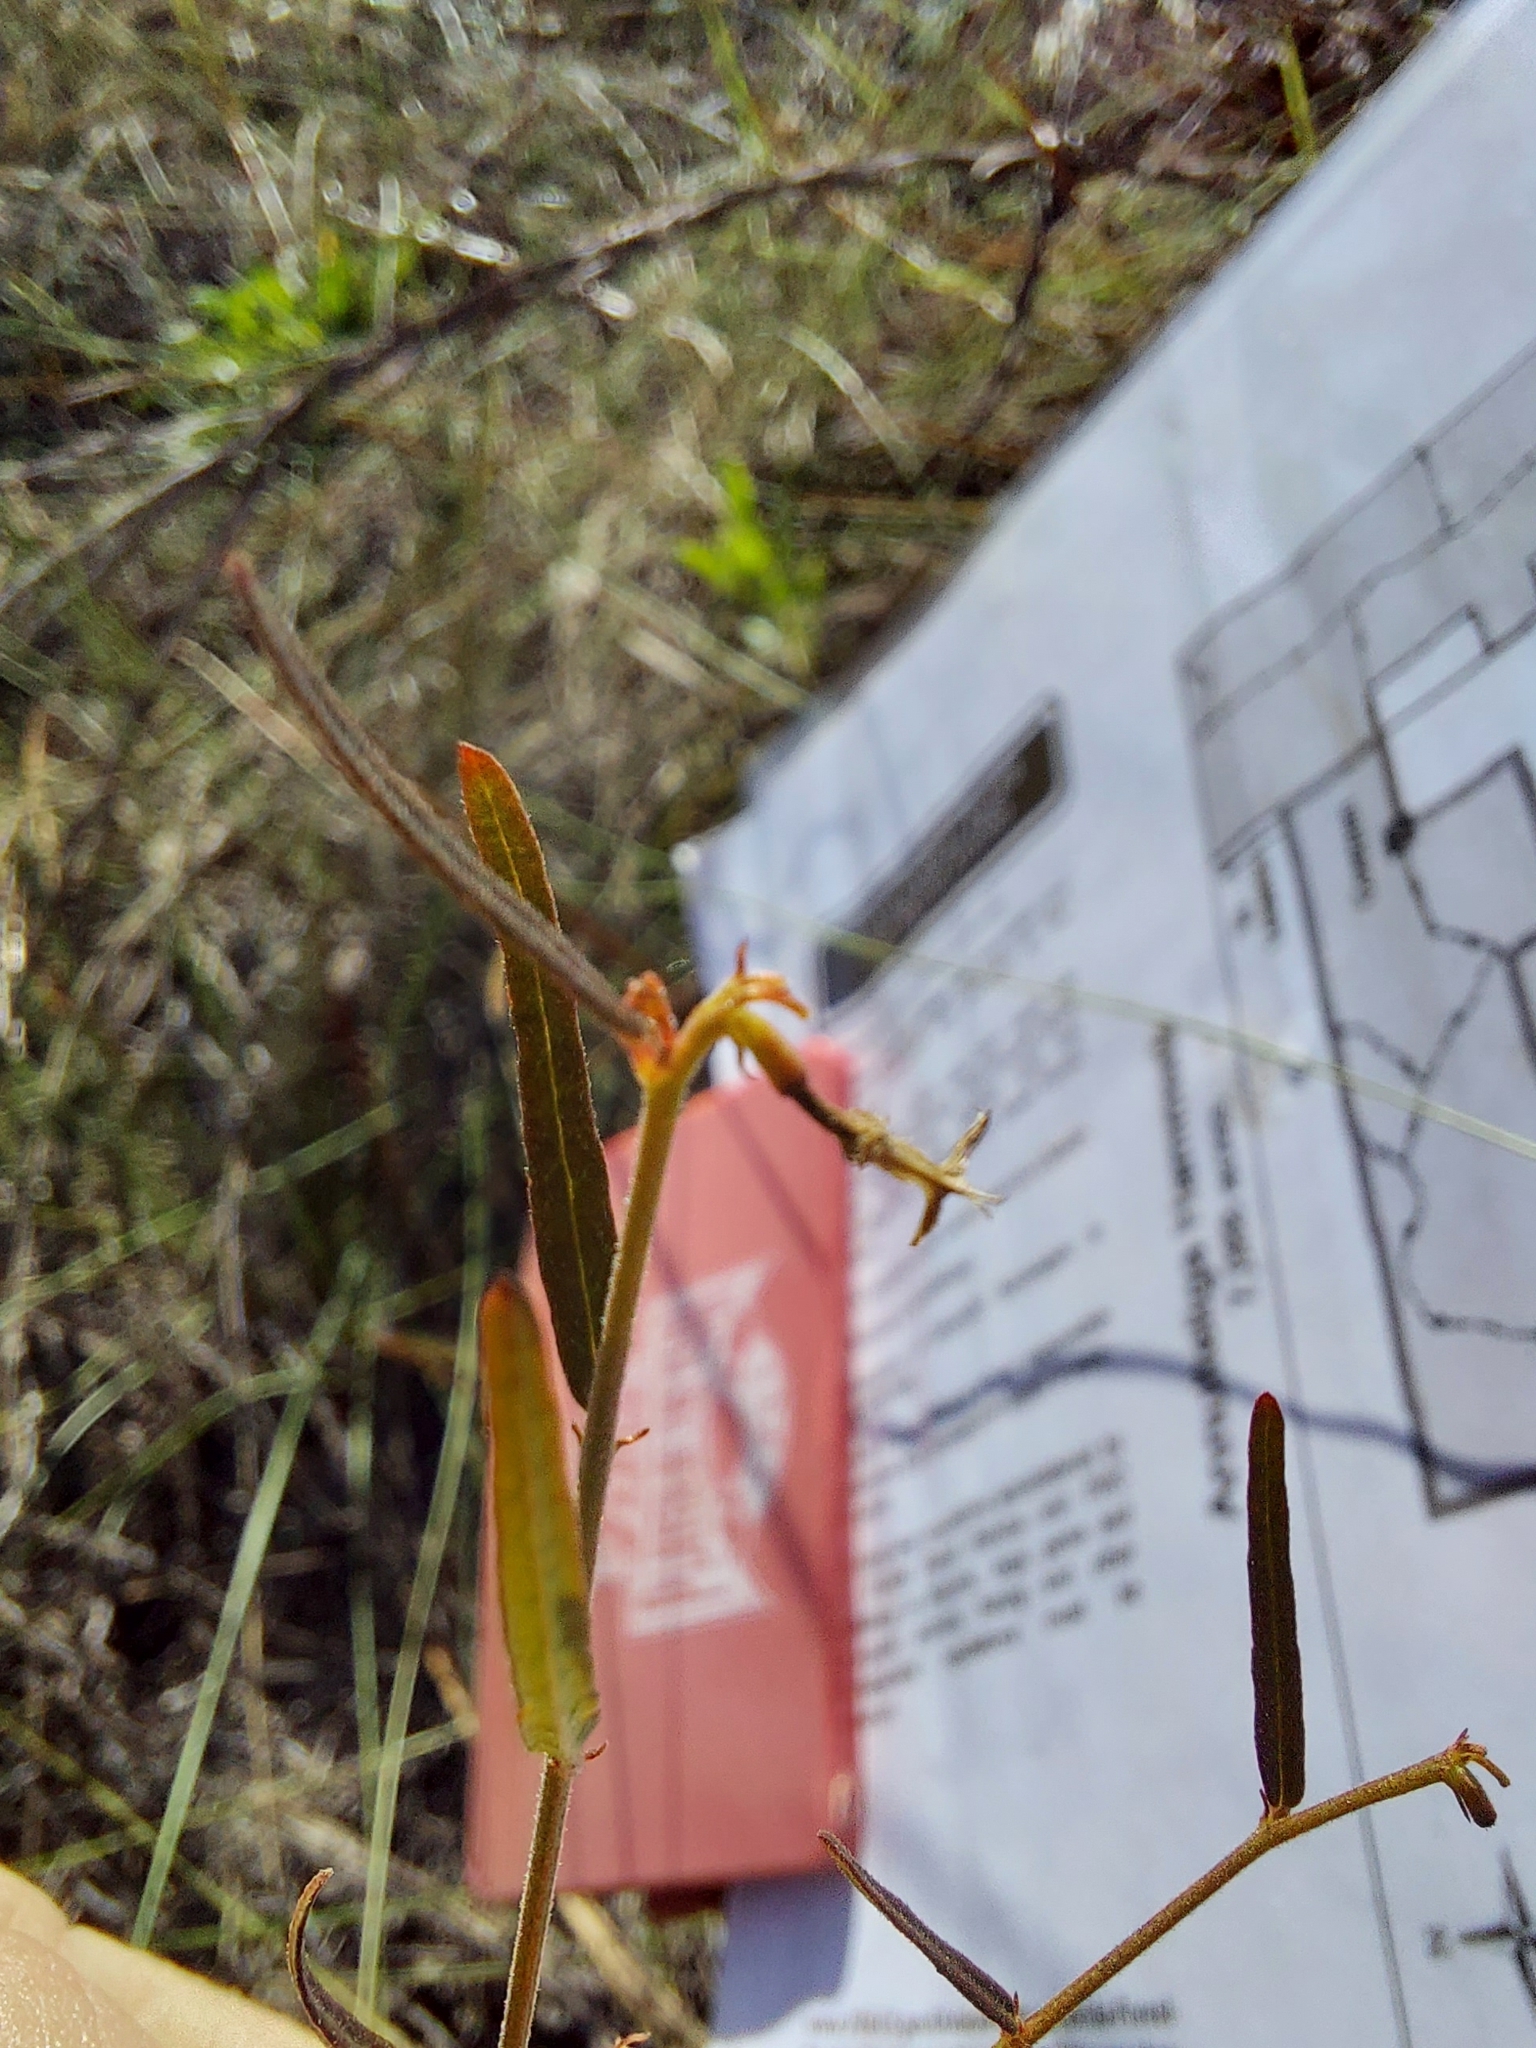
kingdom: Plantae
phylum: Tracheophyta
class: Magnoliopsida
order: Malpighiales
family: Euphorbiaceae
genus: Tragia
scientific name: Tragia urens
